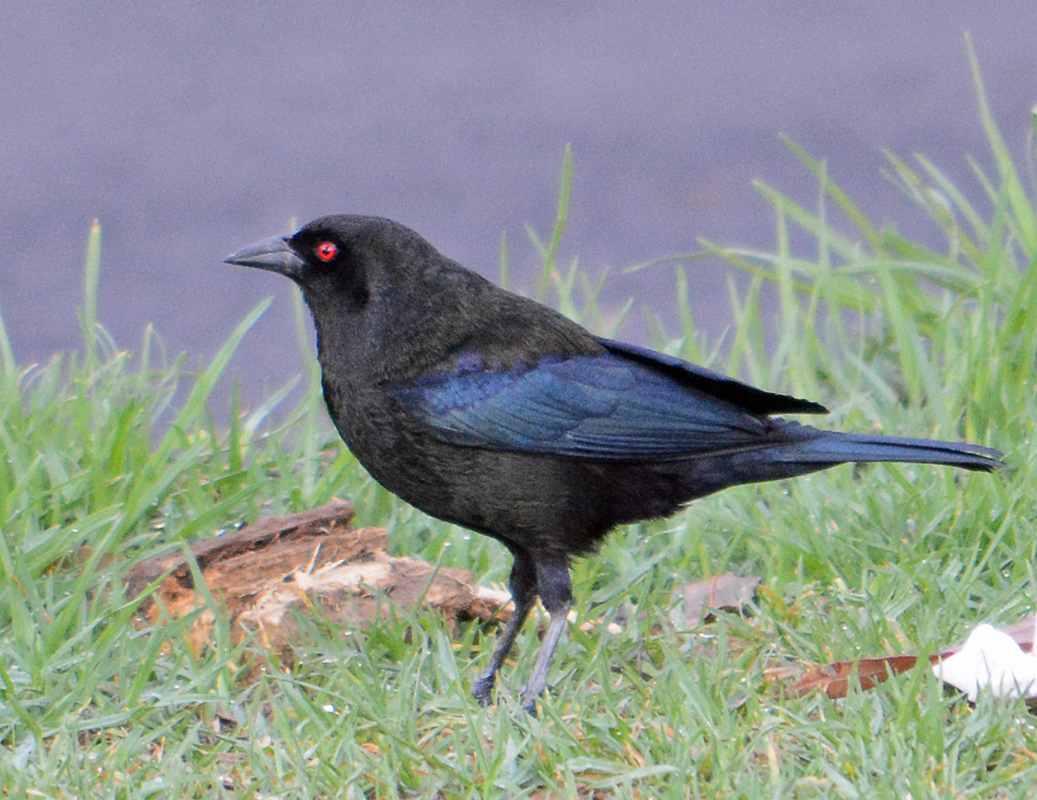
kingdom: Animalia
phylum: Chordata
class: Aves
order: Passeriformes
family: Icteridae
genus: Molothrus
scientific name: Molothrus aeneus
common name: Bronzed cowbird
